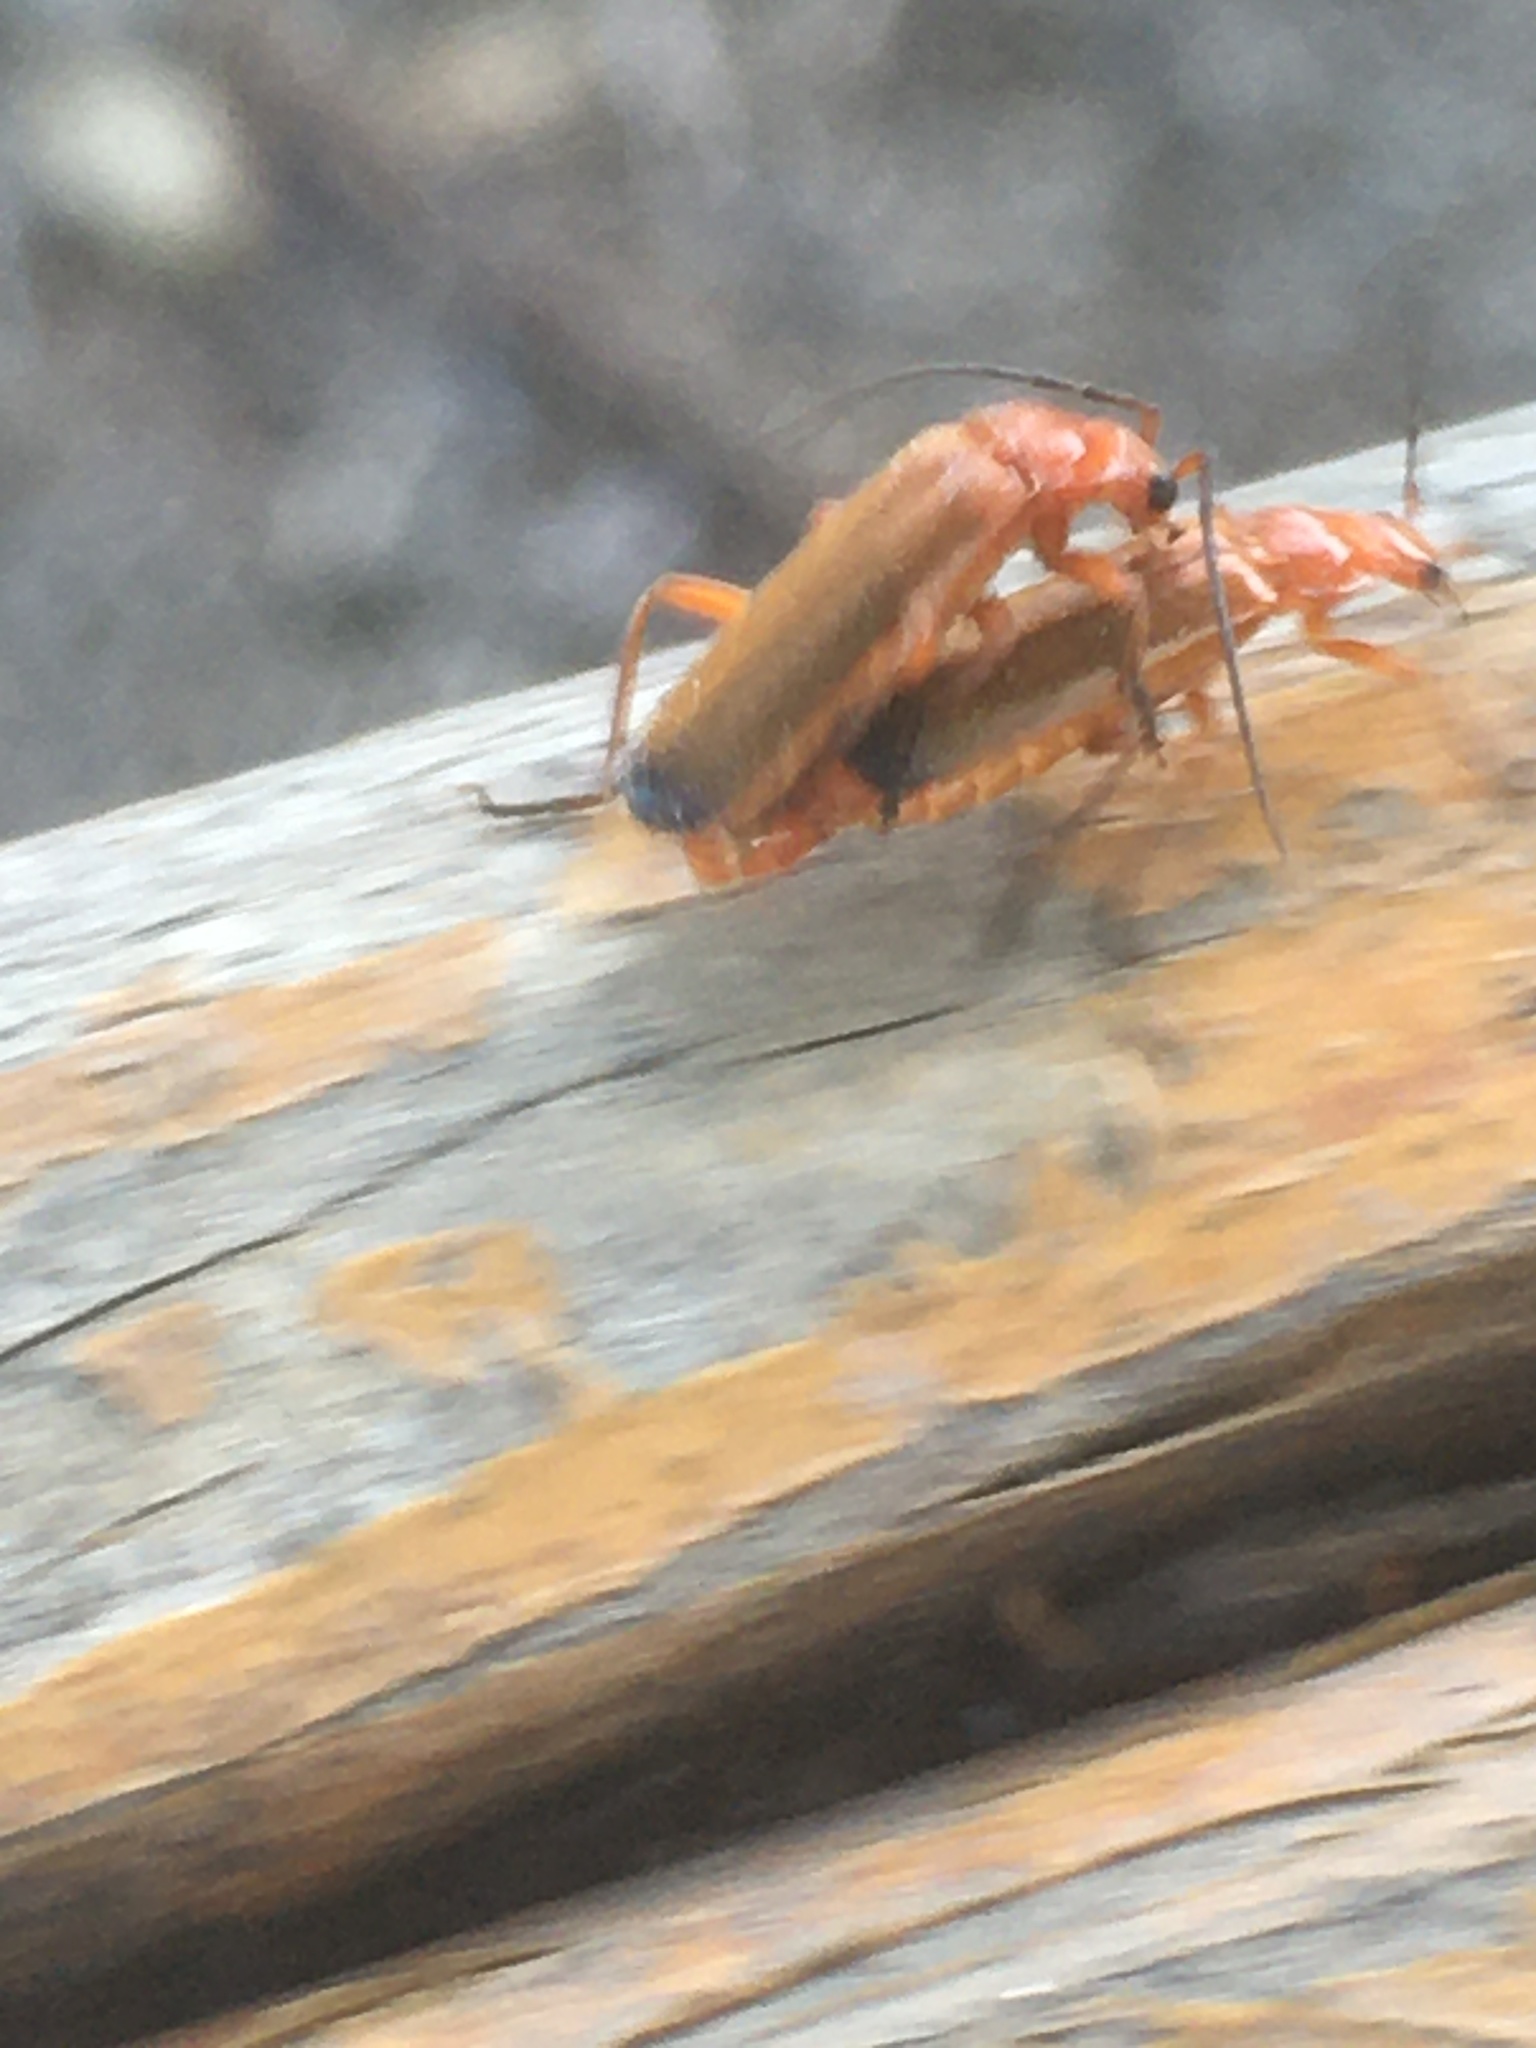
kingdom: Animalia
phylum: Arthropoda
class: Insecta
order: Coleoptera
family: Cantharidae
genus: Rhagonycha
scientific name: Rhagonycha fulva
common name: Common red soldier beetle
